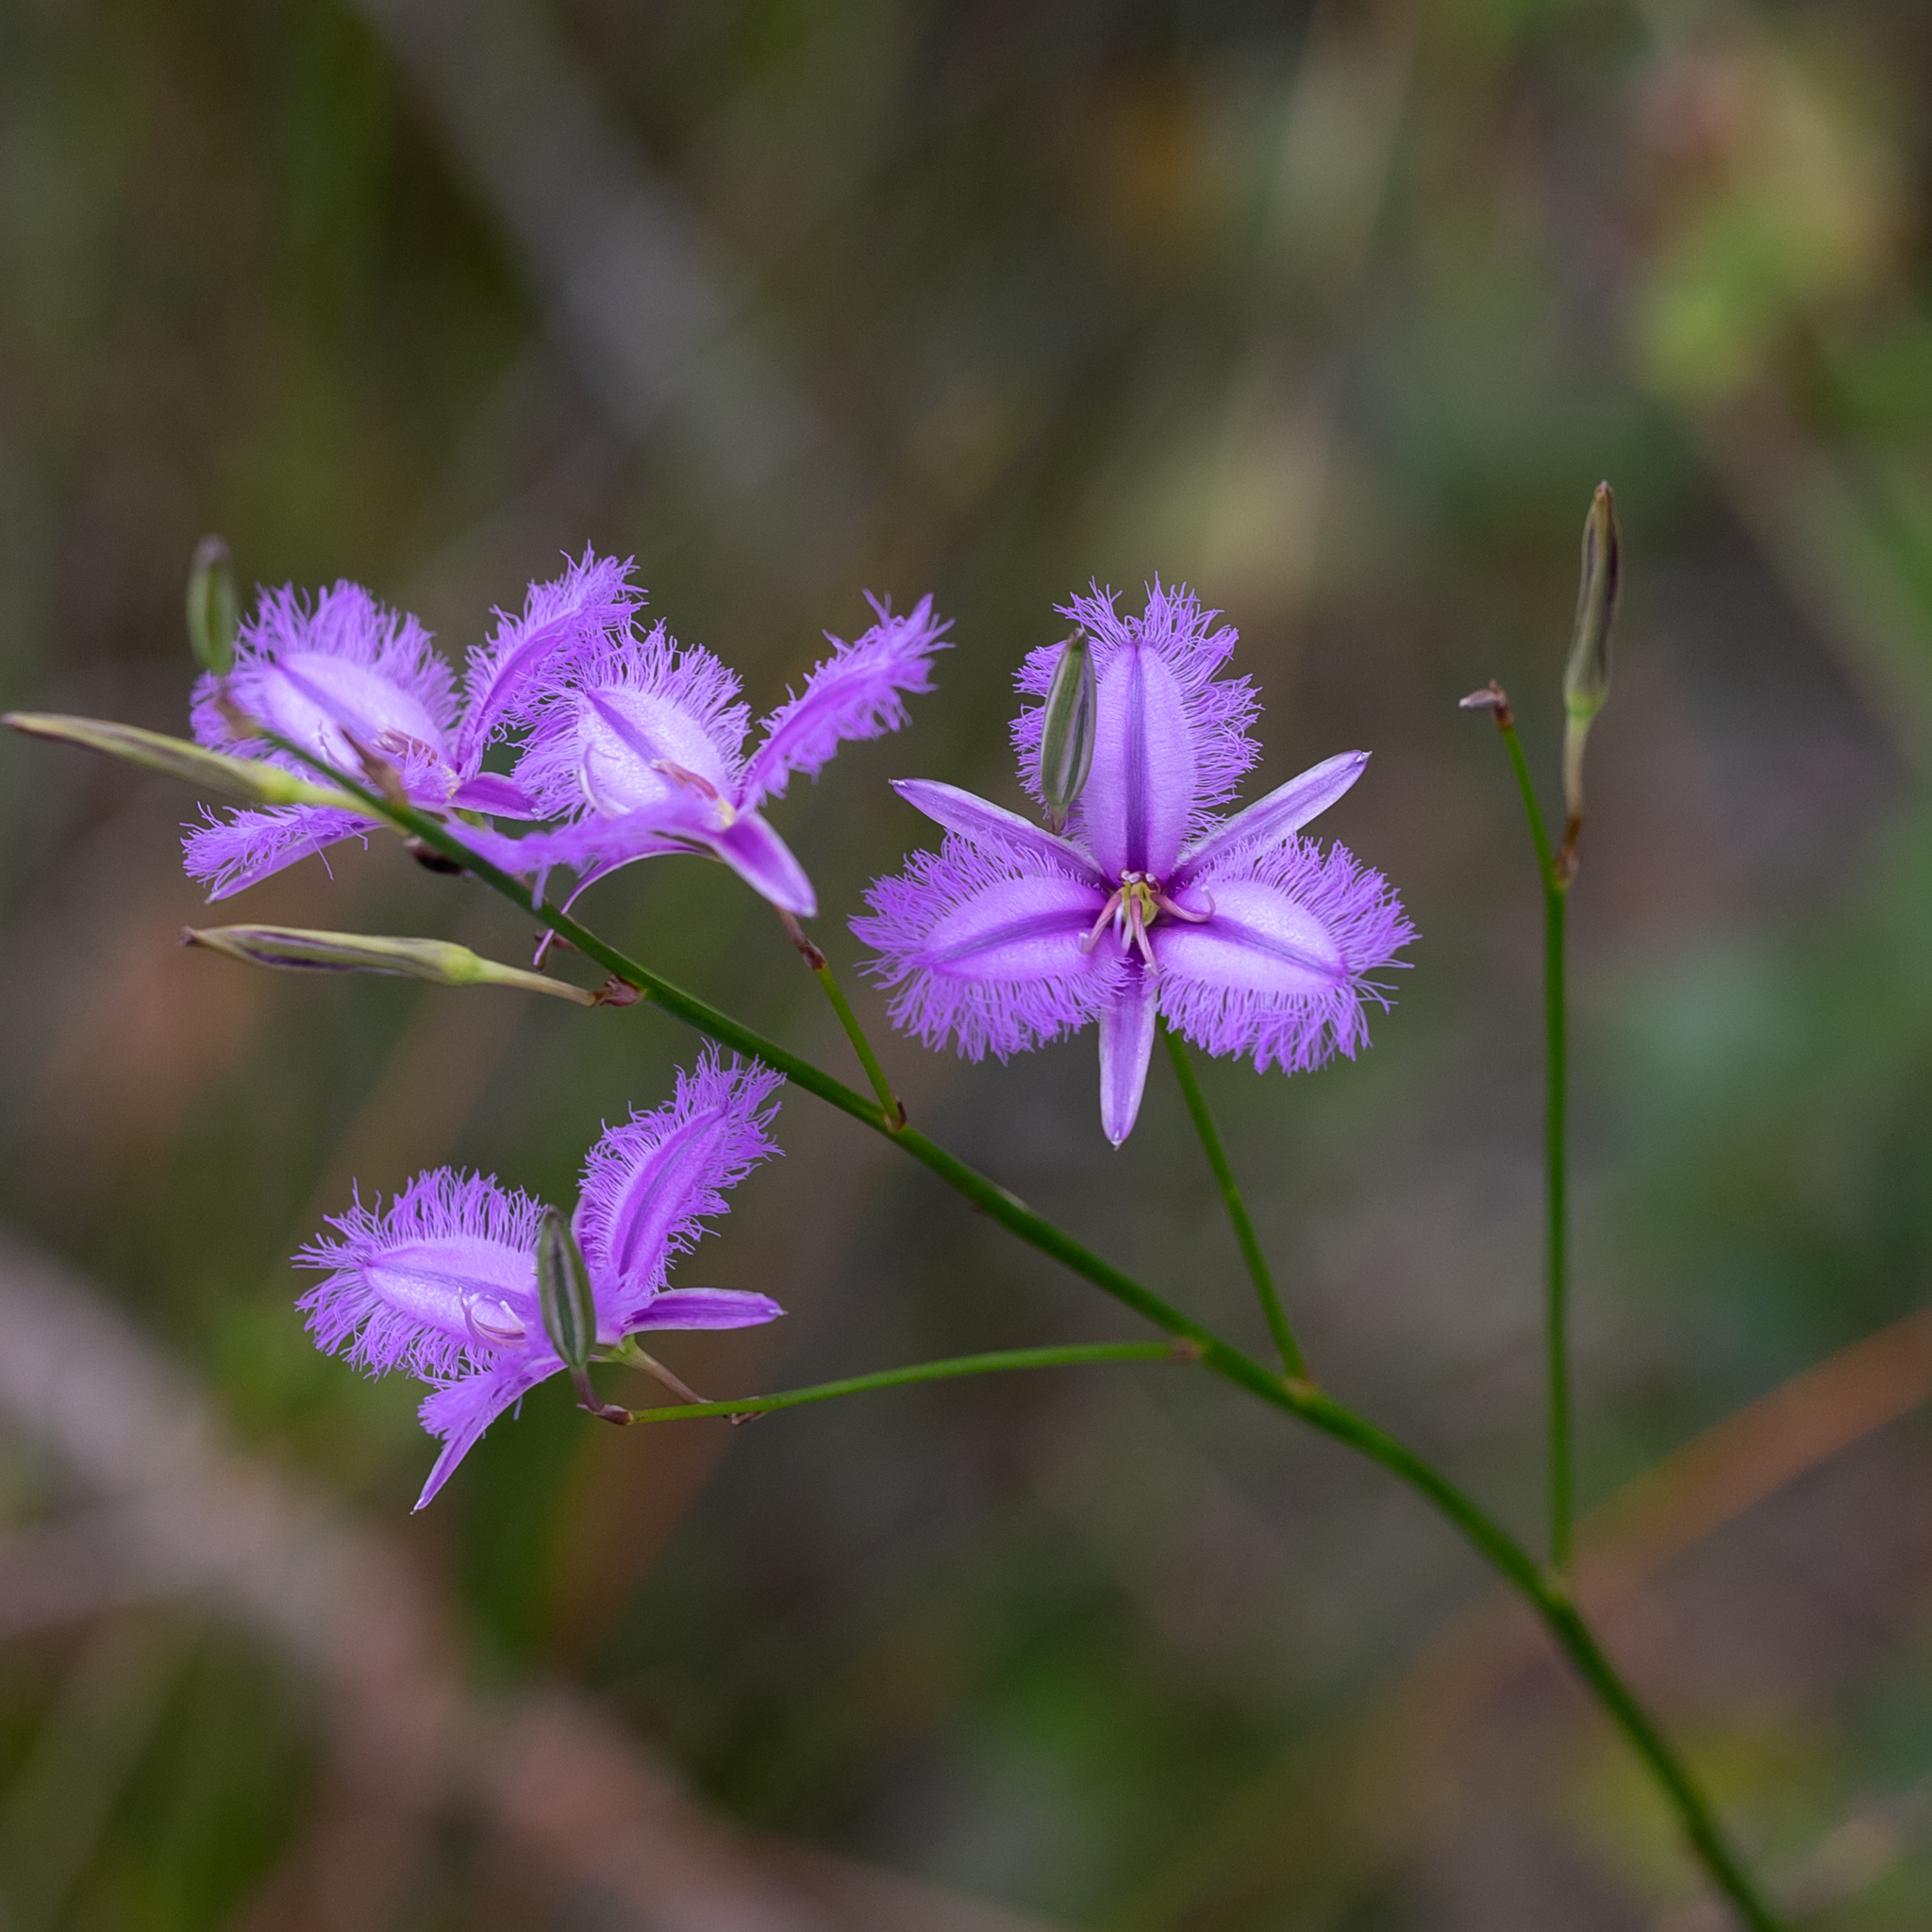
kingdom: Plantae
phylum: Tracheophyta
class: Liliopsida
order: Asparagales
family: Asparagaceae
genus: Thysanotus
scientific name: Thysanotus racemoides
